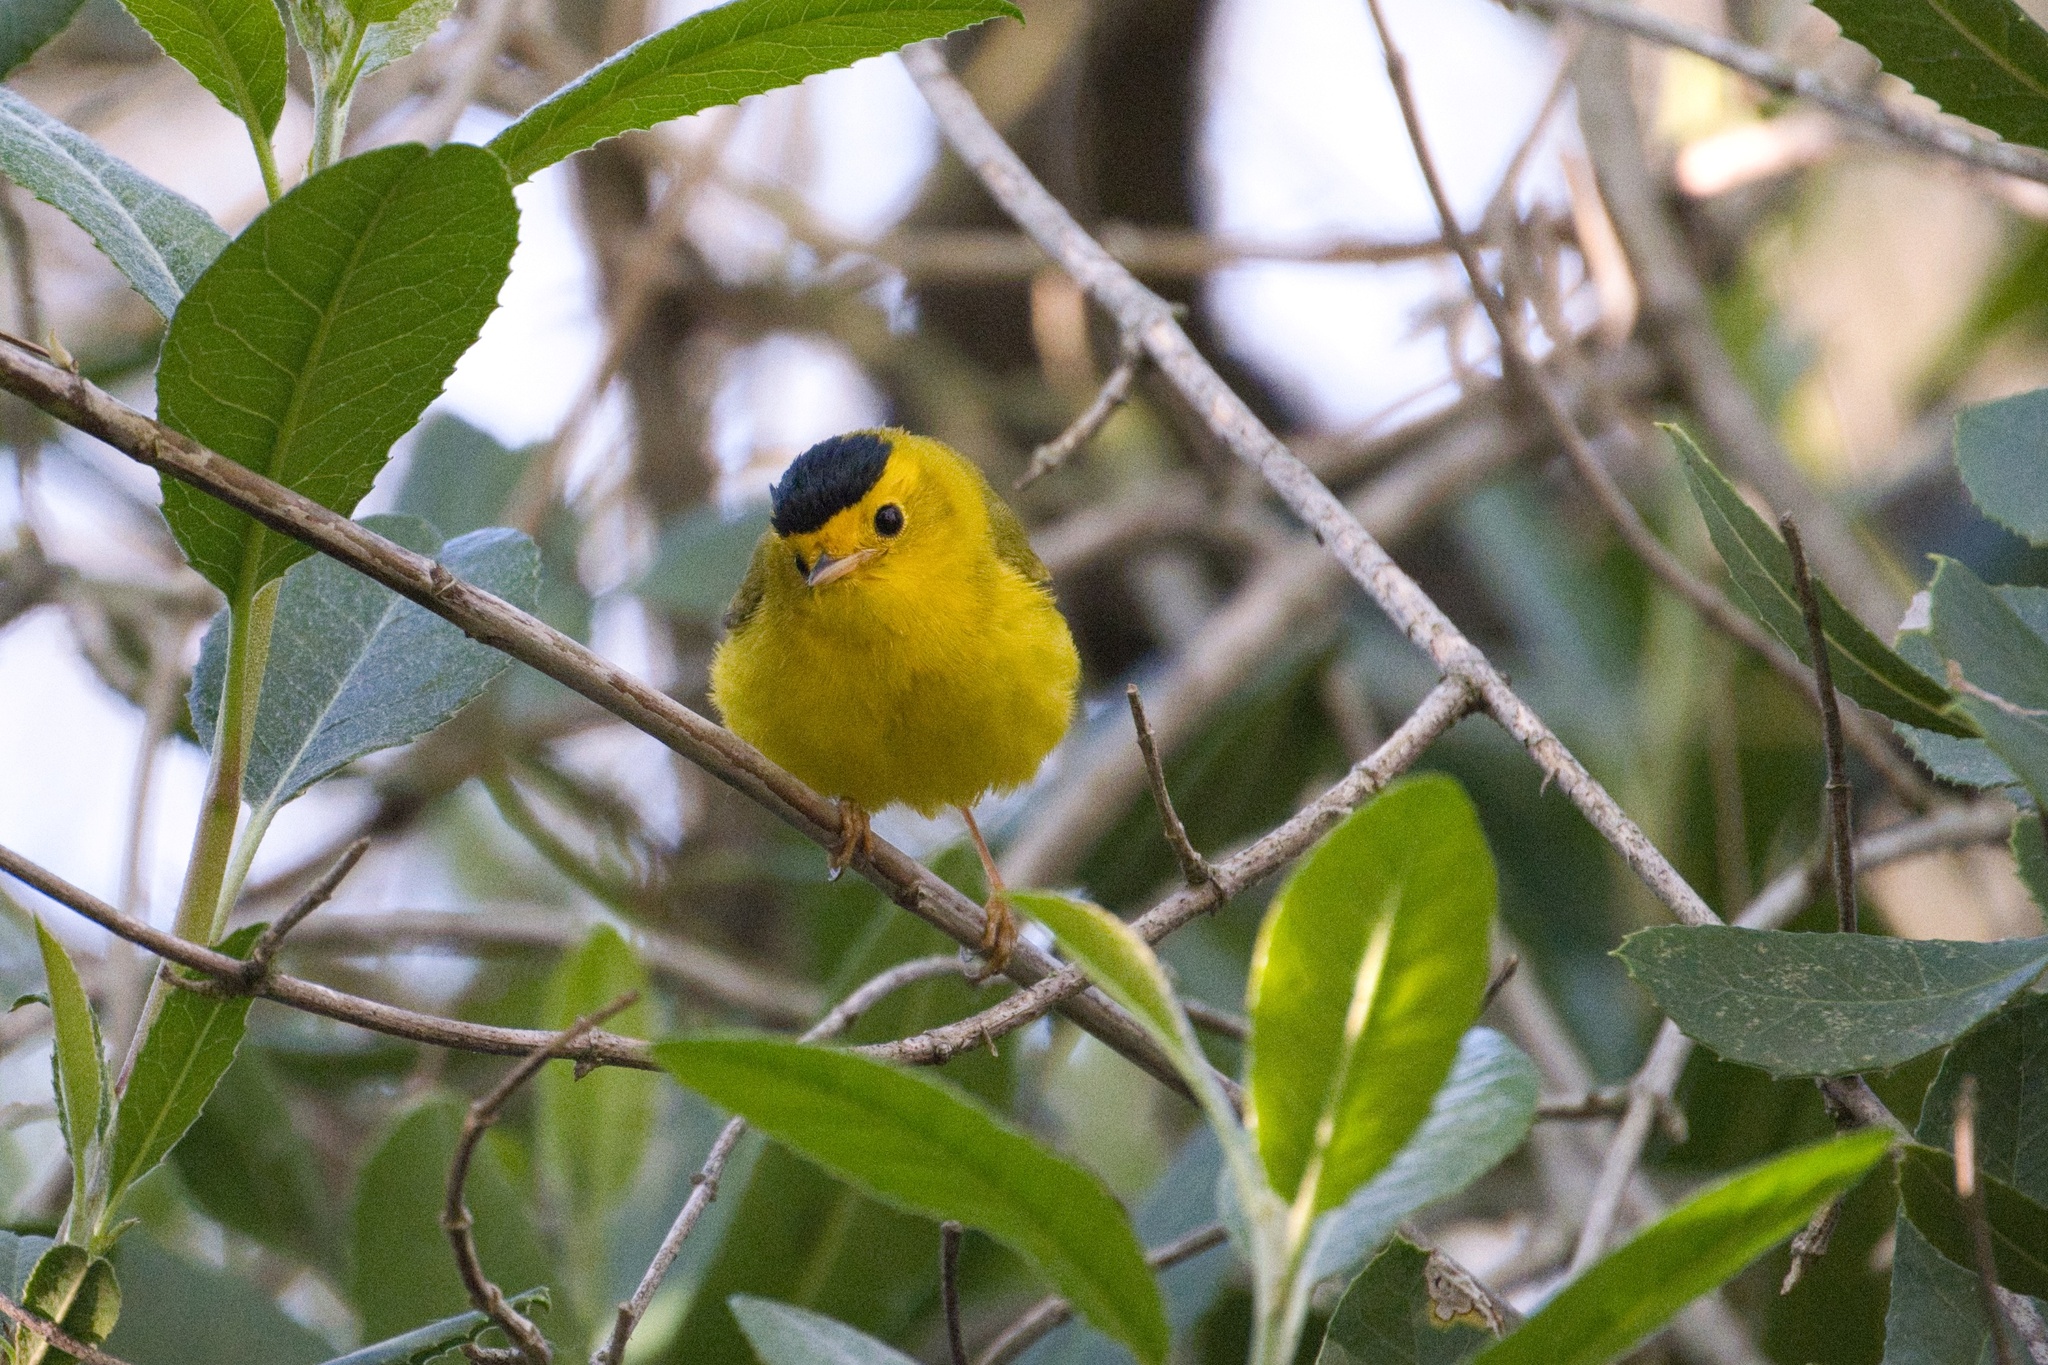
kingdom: Animalia
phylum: Chordata
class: Aves
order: Passeriformes
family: Parulidae
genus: Cardellina
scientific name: Cardellina pusilla
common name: Wilson's warbler
